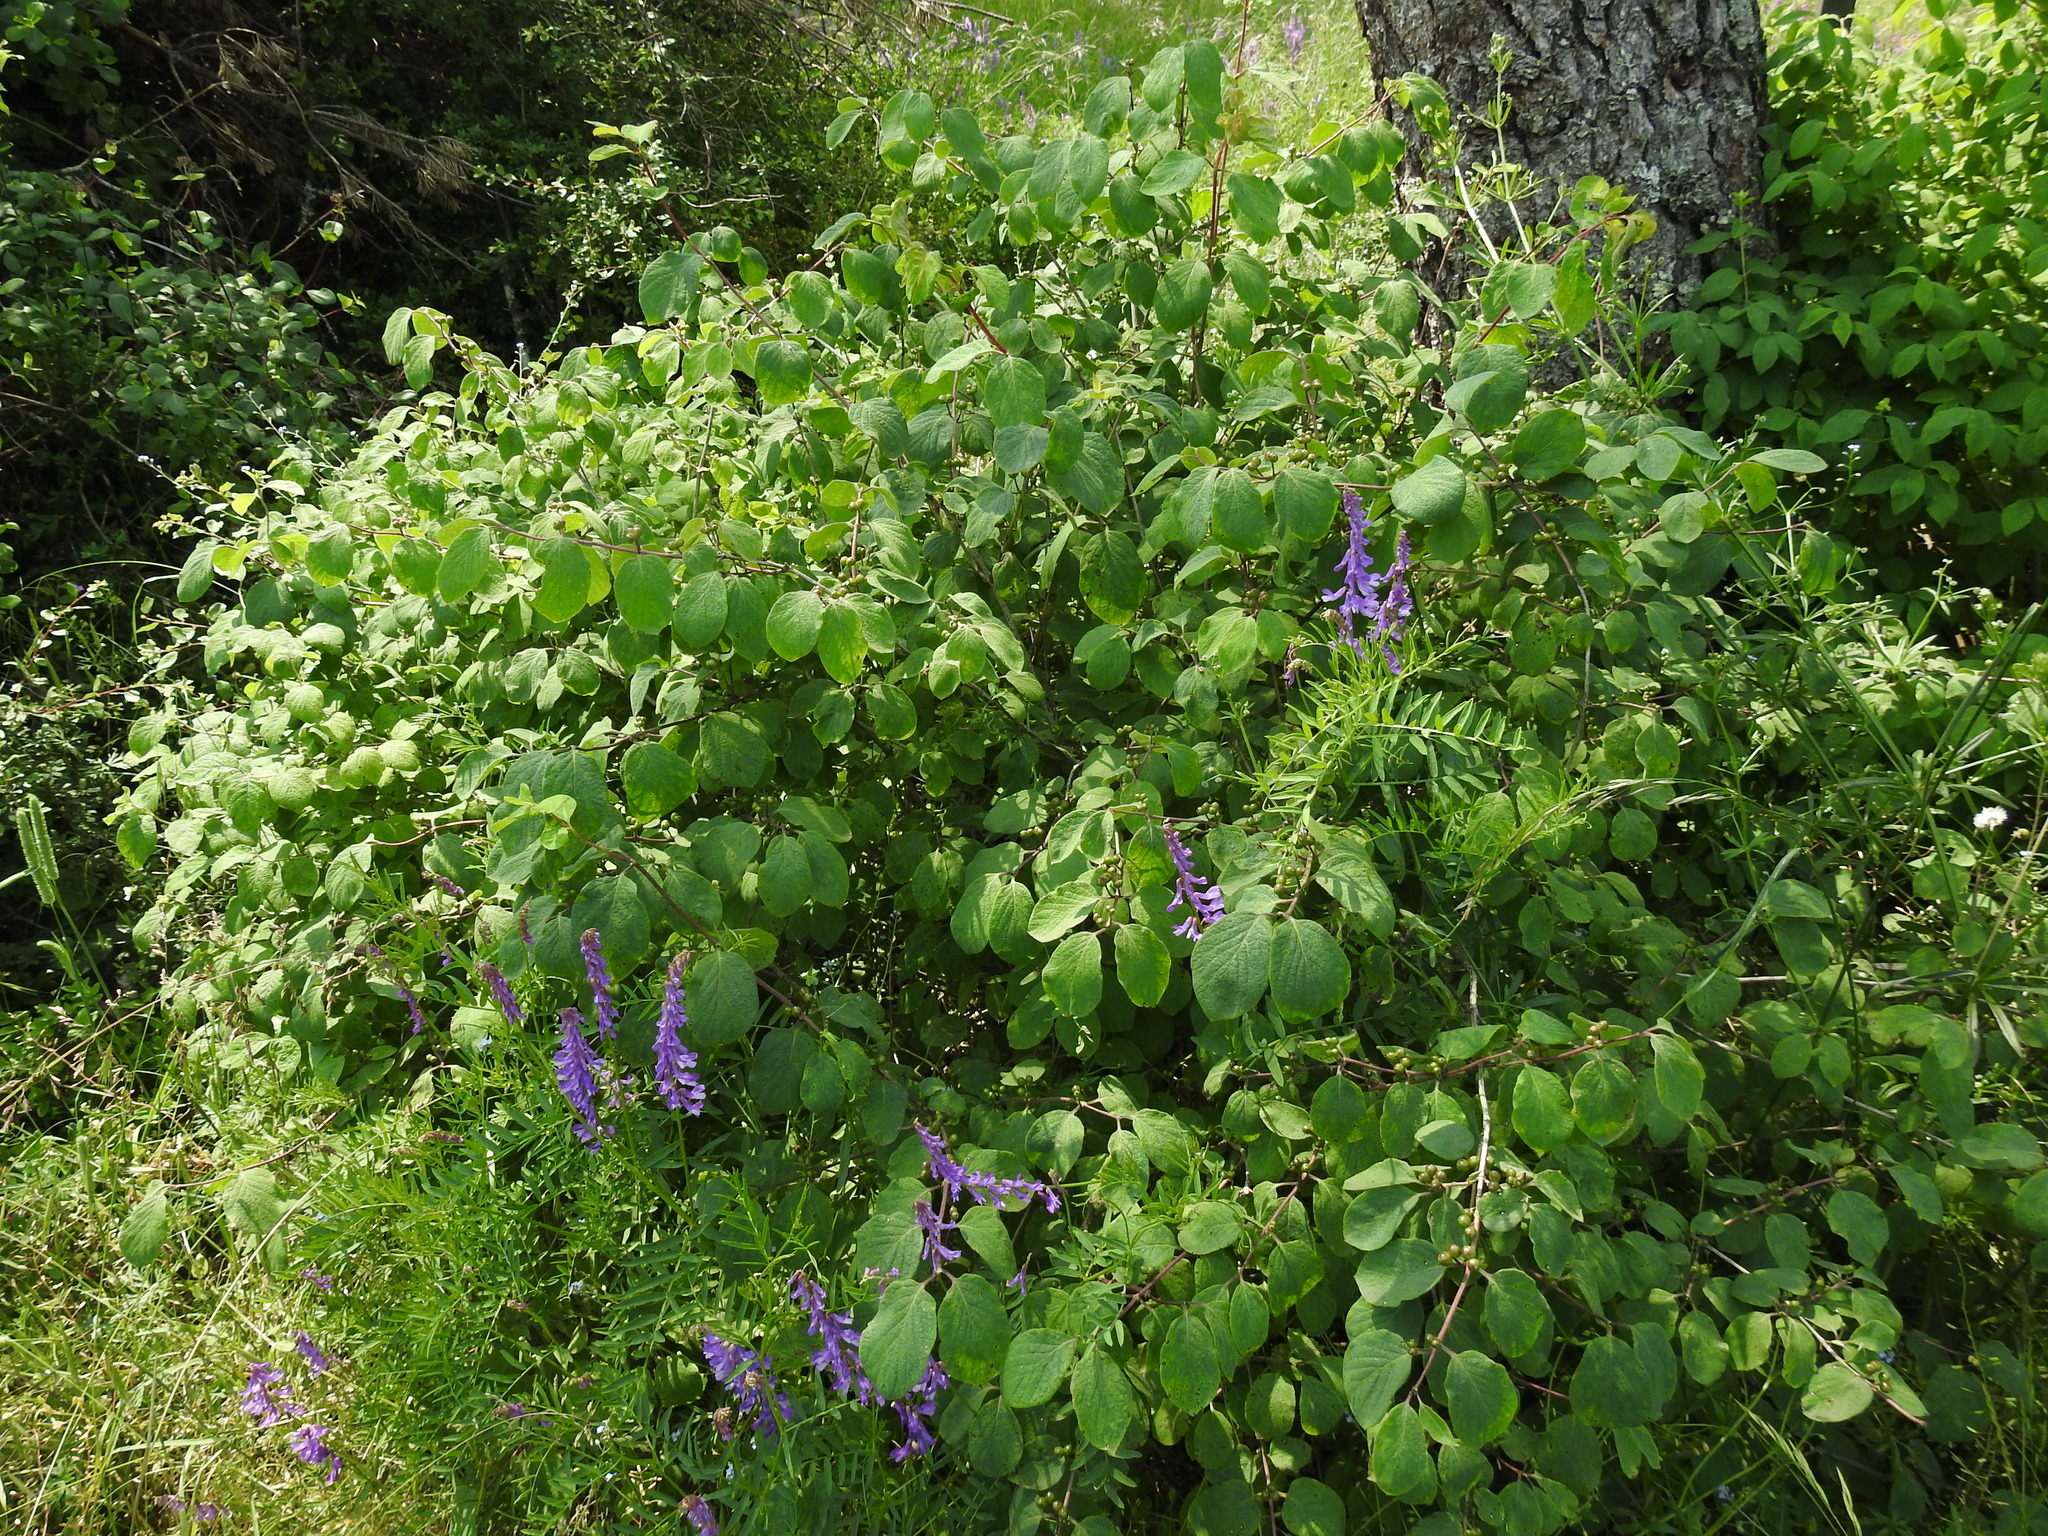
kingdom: Plantae
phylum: Tracheophyta
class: Magnoliopsida
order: Dipsacales
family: Caprifoliaceae
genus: Lonicera
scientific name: Lonicera xylosteum
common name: Fly honeysuckle
